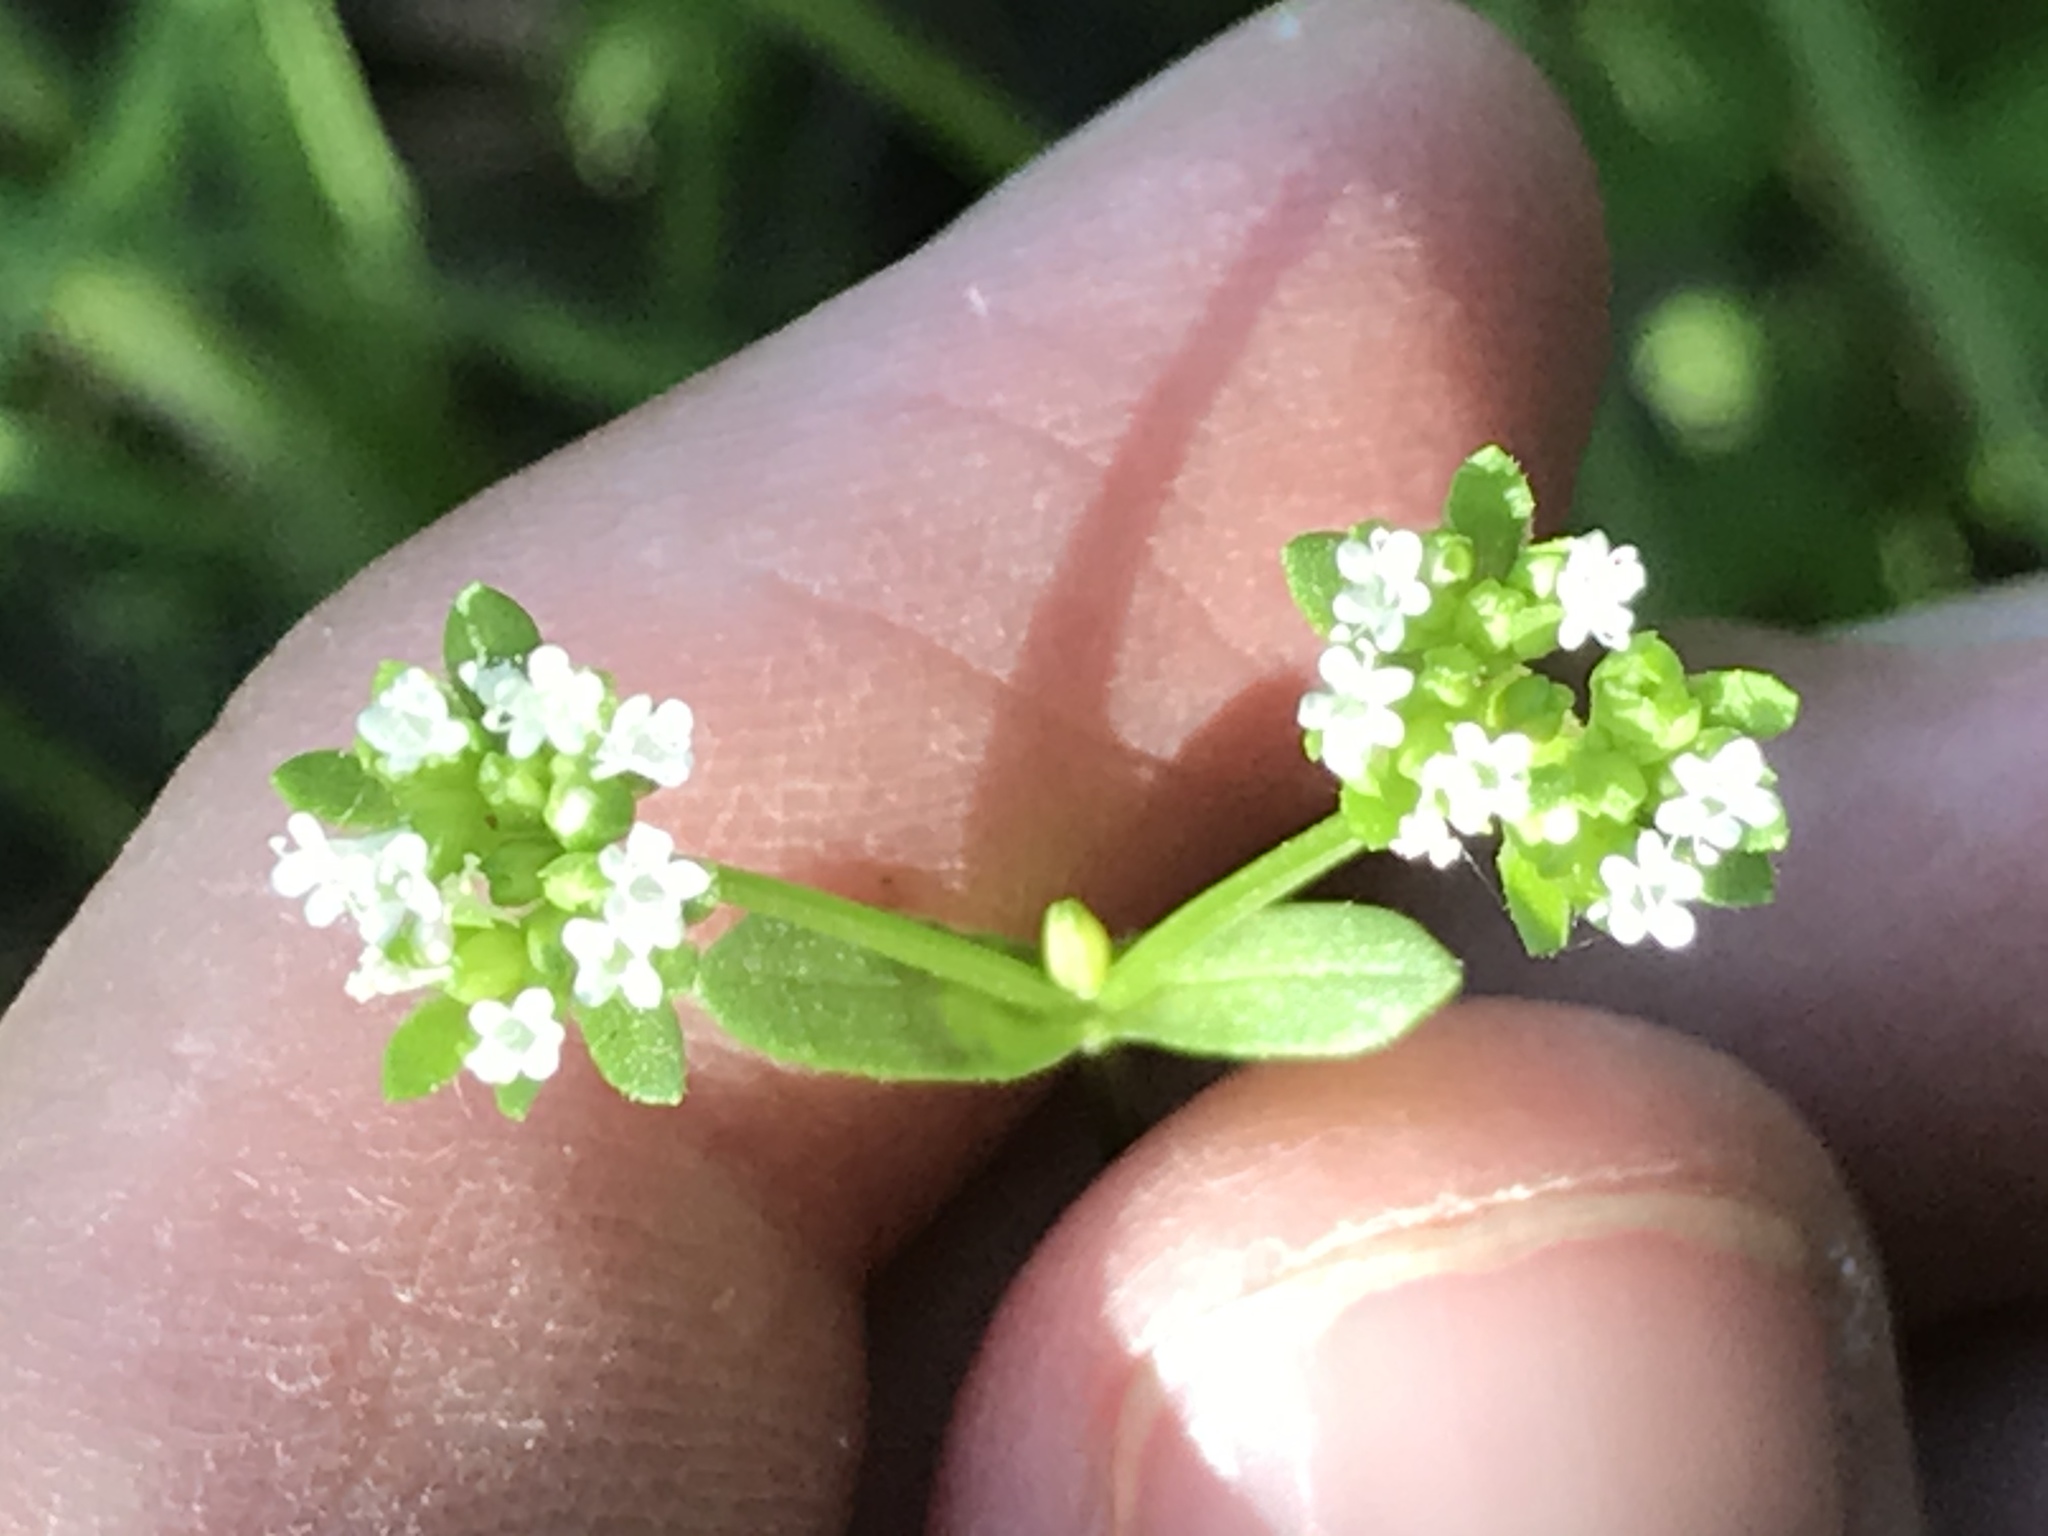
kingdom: Plantae
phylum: Tracheophyta
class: Magnoliopsida
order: Dipsacales
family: Caprifoliaceae
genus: Valerianella
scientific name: Valerianella radiata
